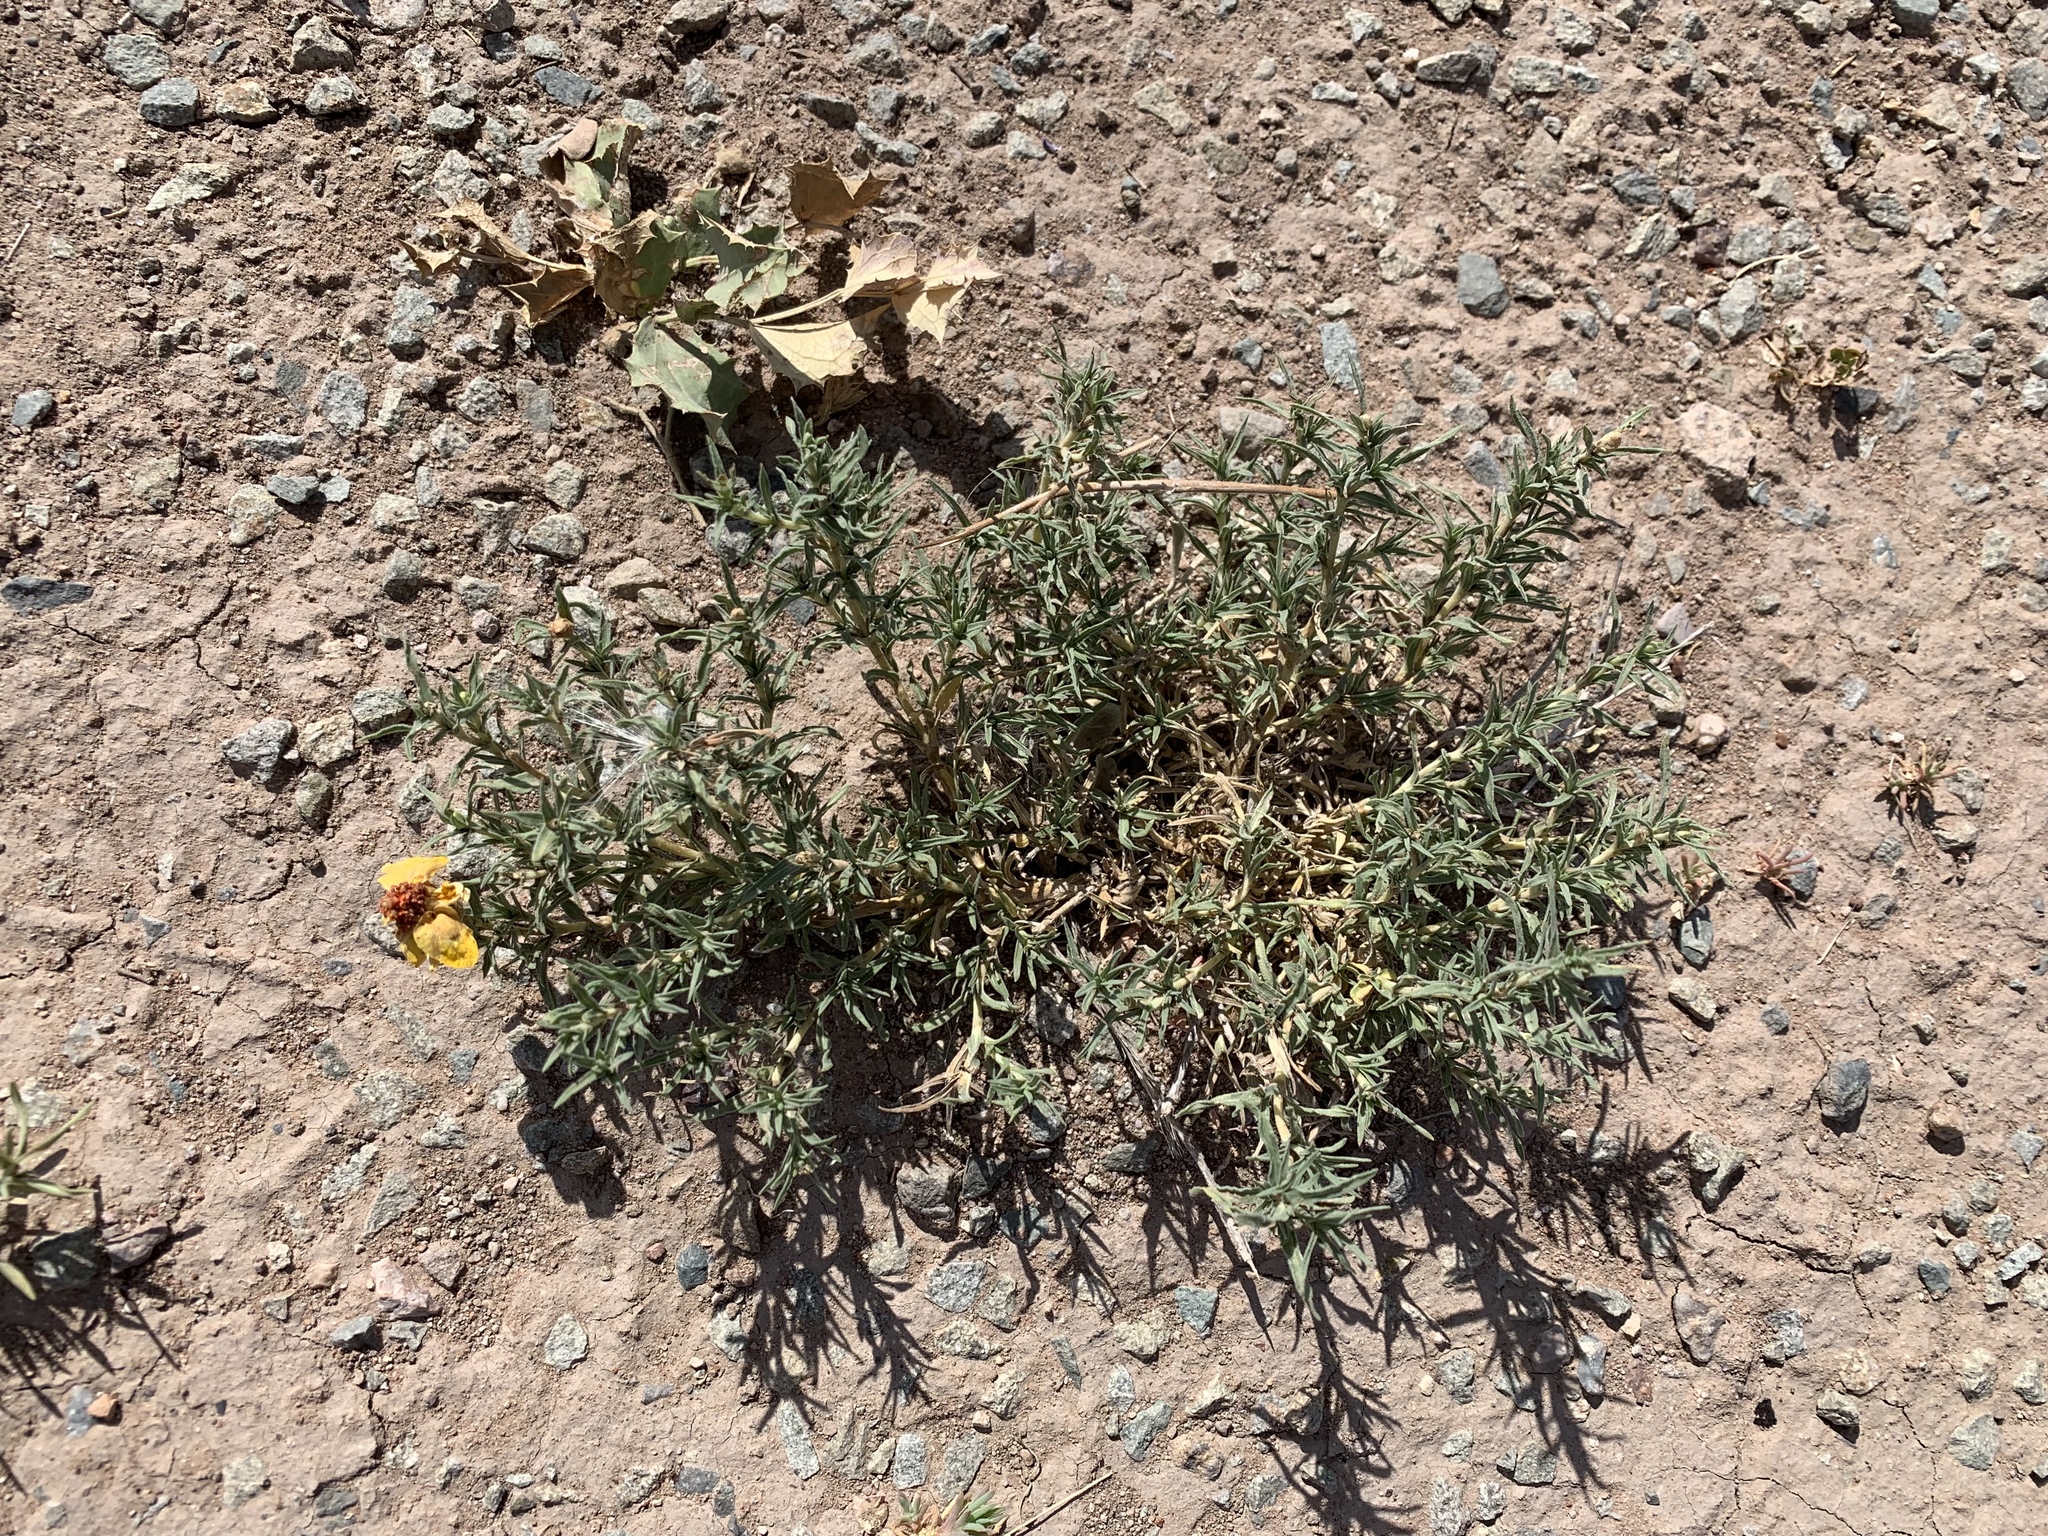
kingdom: Plantae
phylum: Tracheophyta
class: Magnoliopsida
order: Asterales
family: Asteraceae
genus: Zinnia
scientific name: Zinnia grandiflora
